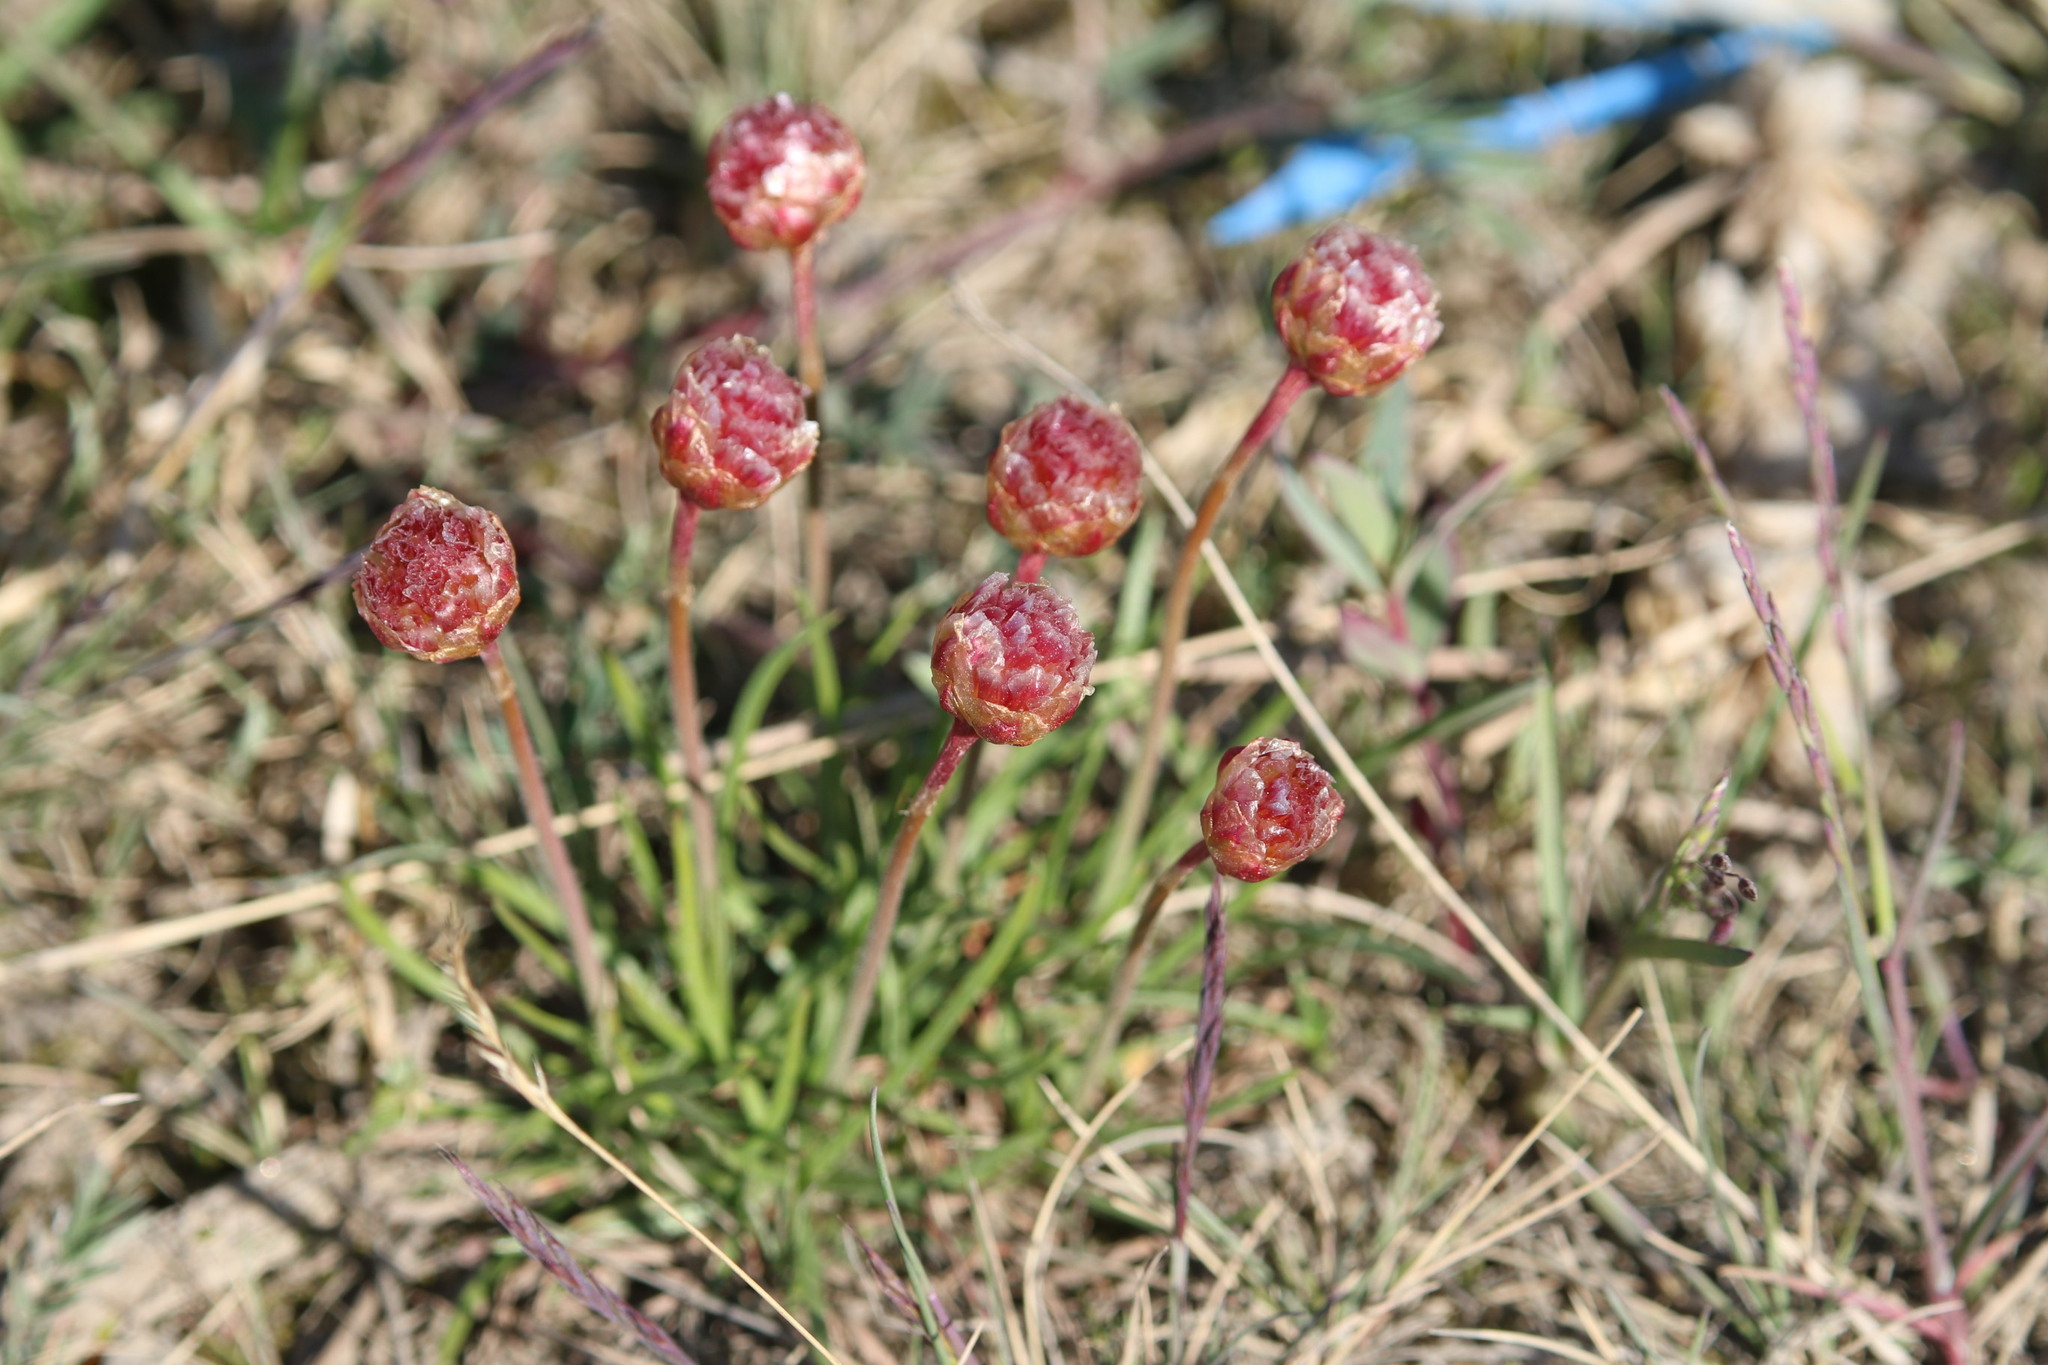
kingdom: Plantae
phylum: Tracheophyta
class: Magnoliopsida
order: Caryophyllales
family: Plumbaginaceae
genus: Armeria
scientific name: Armeria maritima
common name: Thrift
